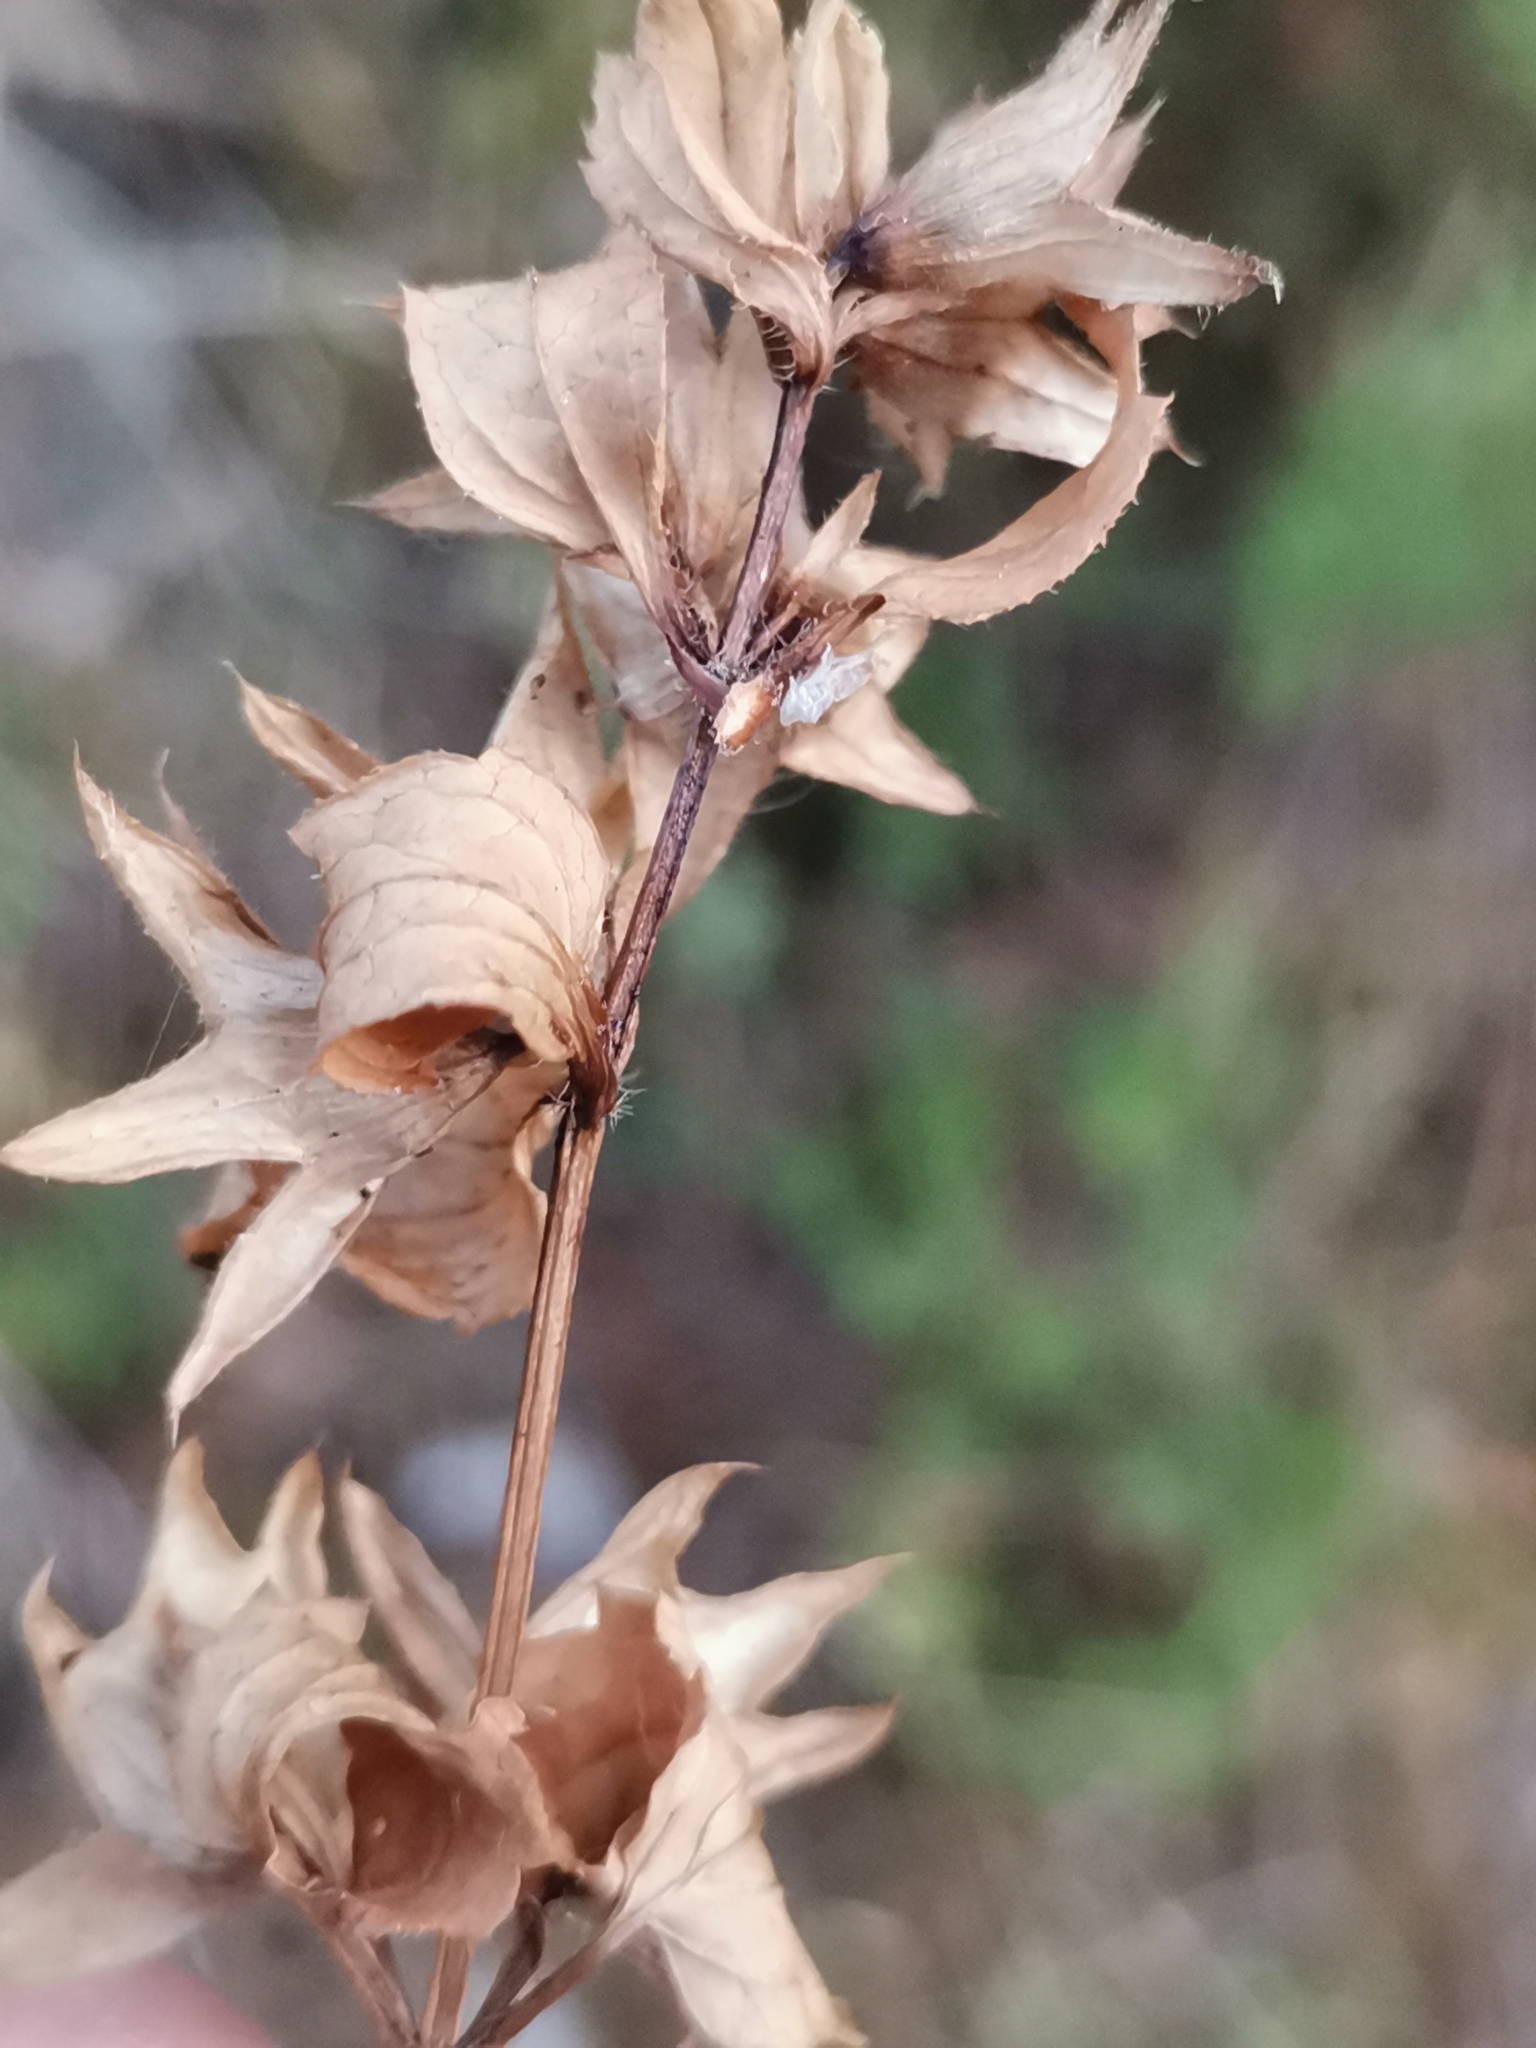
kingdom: Plantae
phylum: Tracheophyta
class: Magnoliopsida
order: Lamiales
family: Lamiaceae
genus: Prasium
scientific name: Prasium majus
